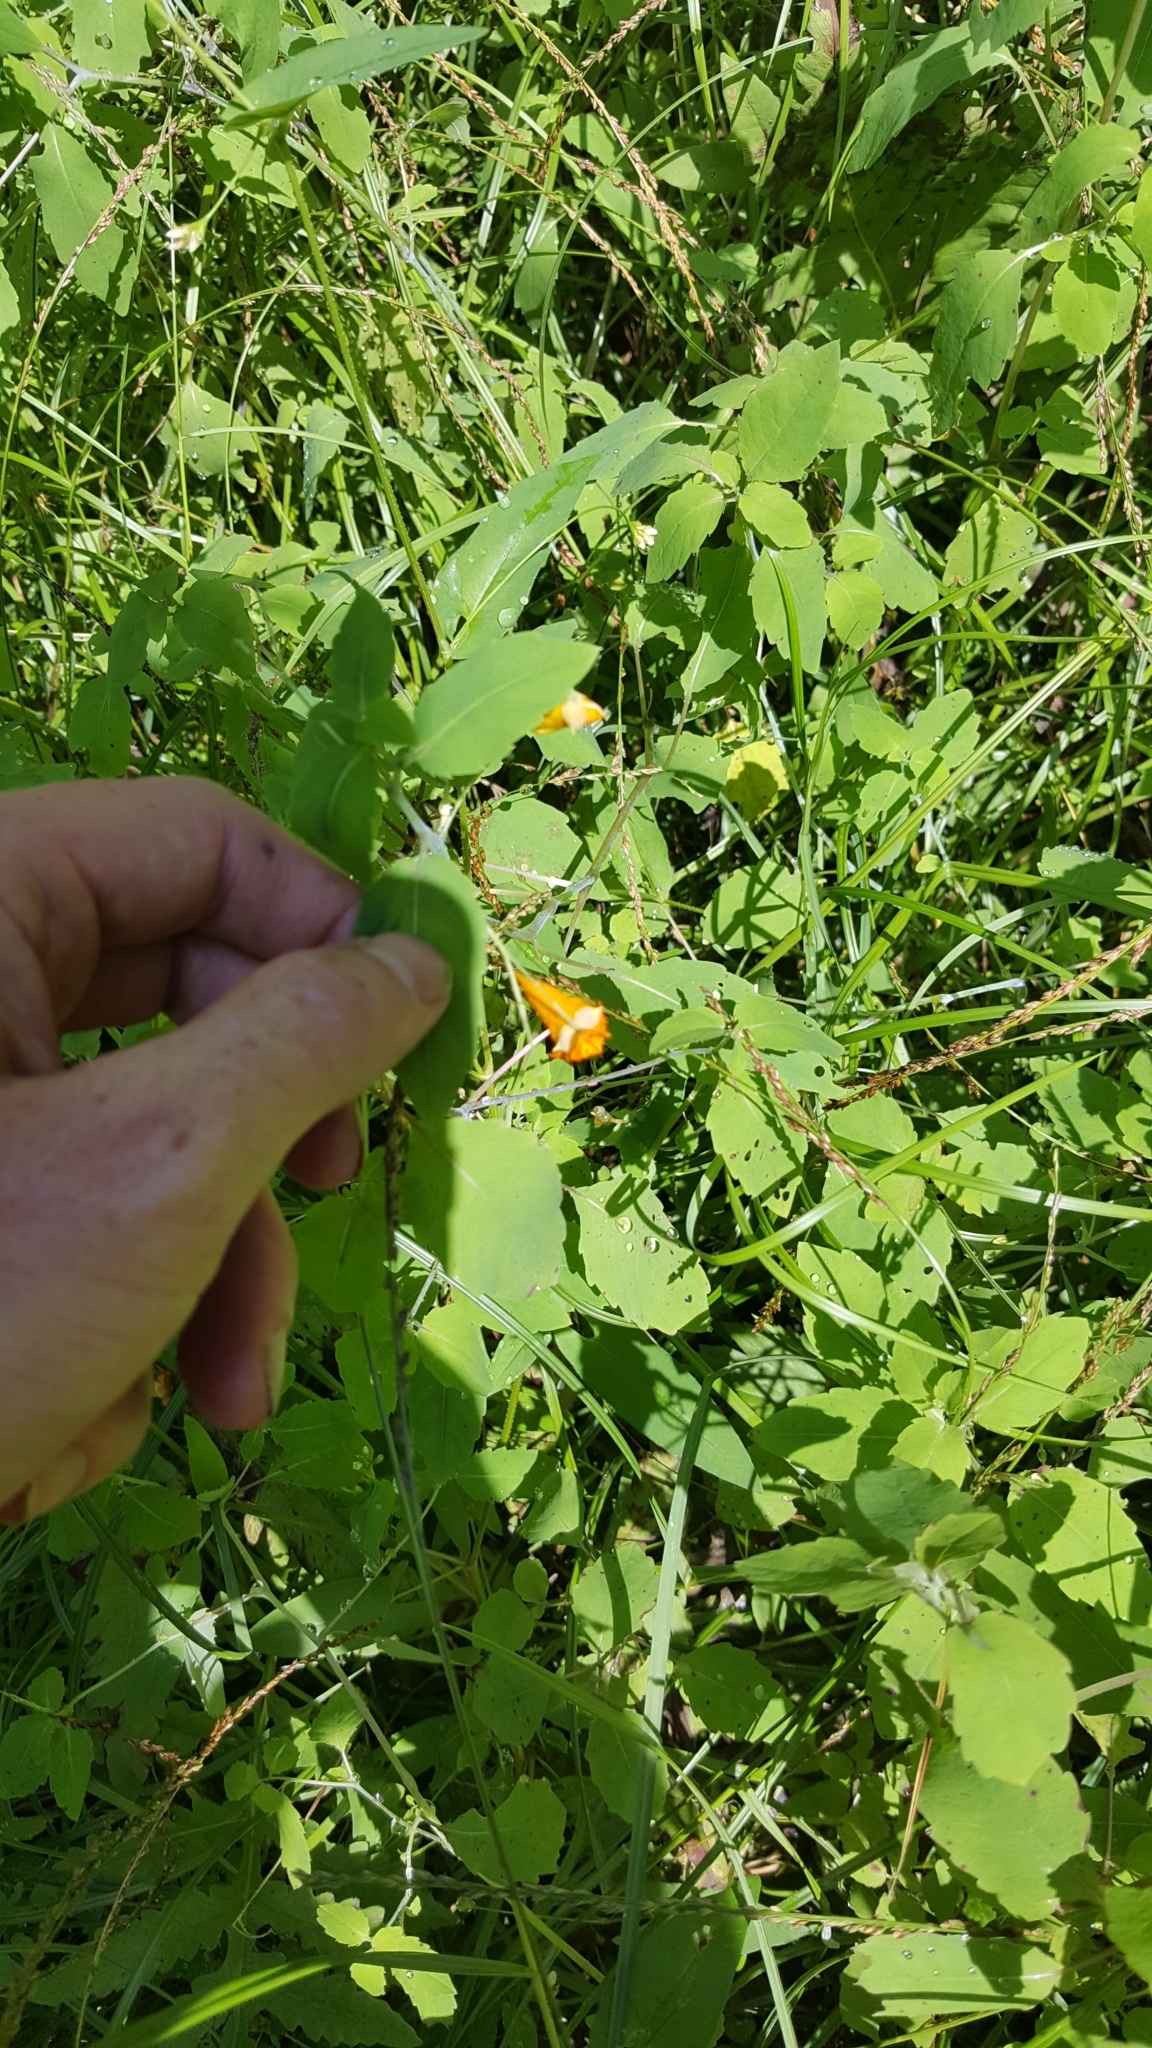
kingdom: Plantae
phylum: Tracheophyta
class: Magnoliopsida
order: Ericales
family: Balsaminaceae
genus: Impatiens
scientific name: Impatiens capensis
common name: Orange balsam
